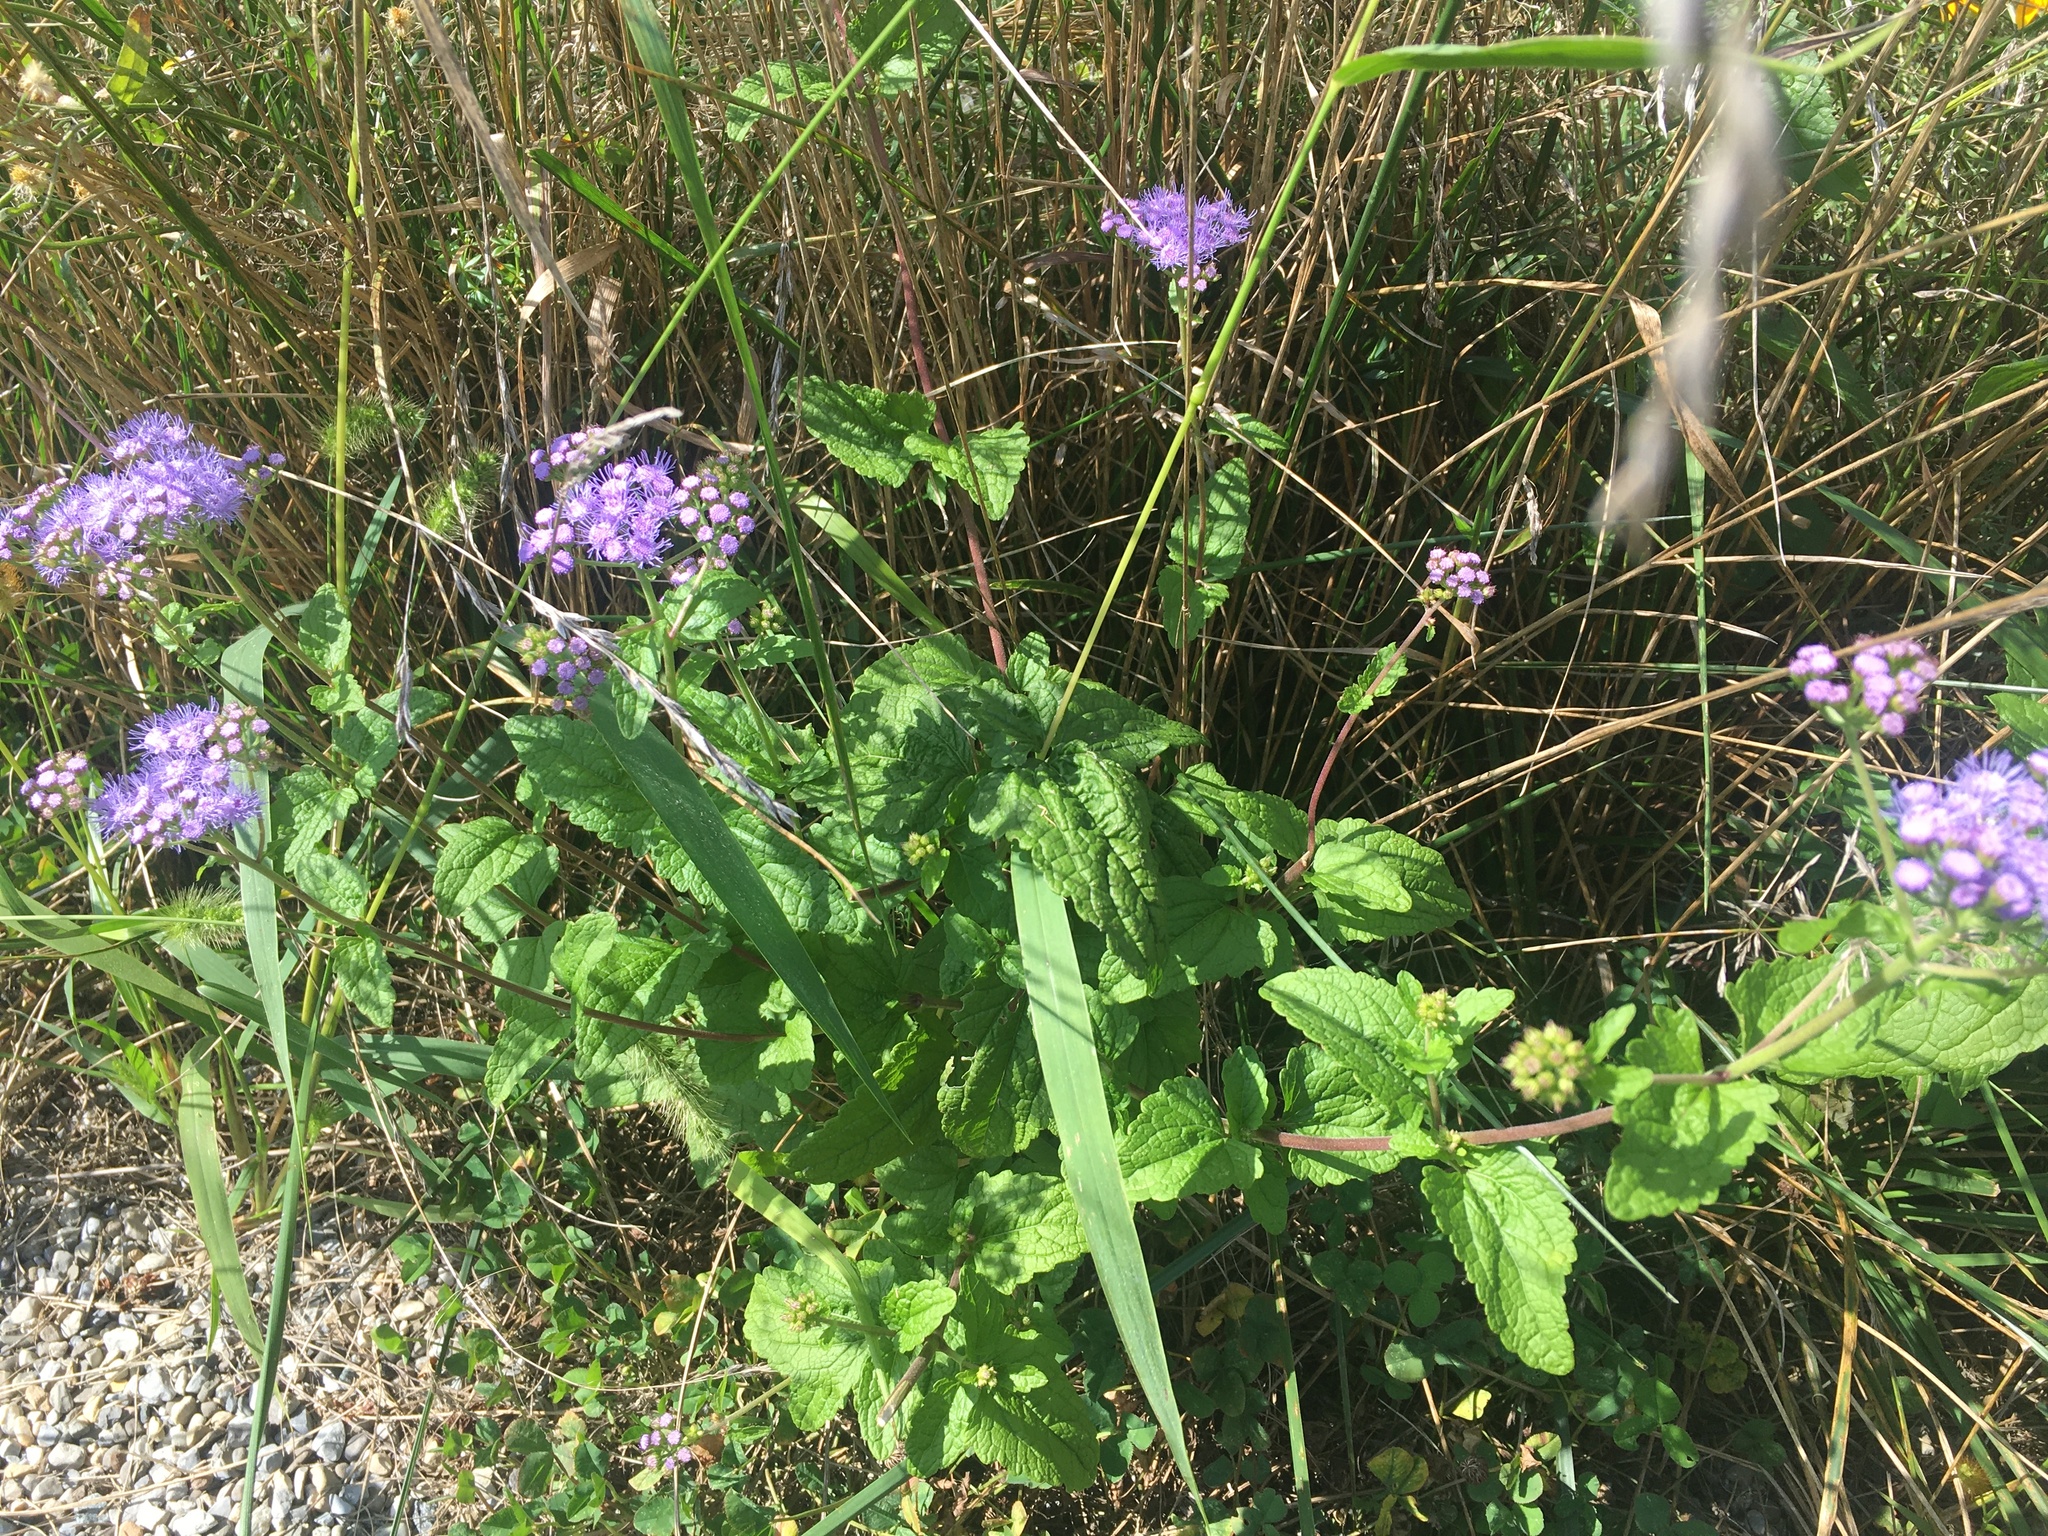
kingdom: Plantae
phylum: Tracheophyta
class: Magnoliopsida
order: Asterales
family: Asteraceae
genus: Conoclinium
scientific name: Conoclinium coelestinum
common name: Blue mistflower
